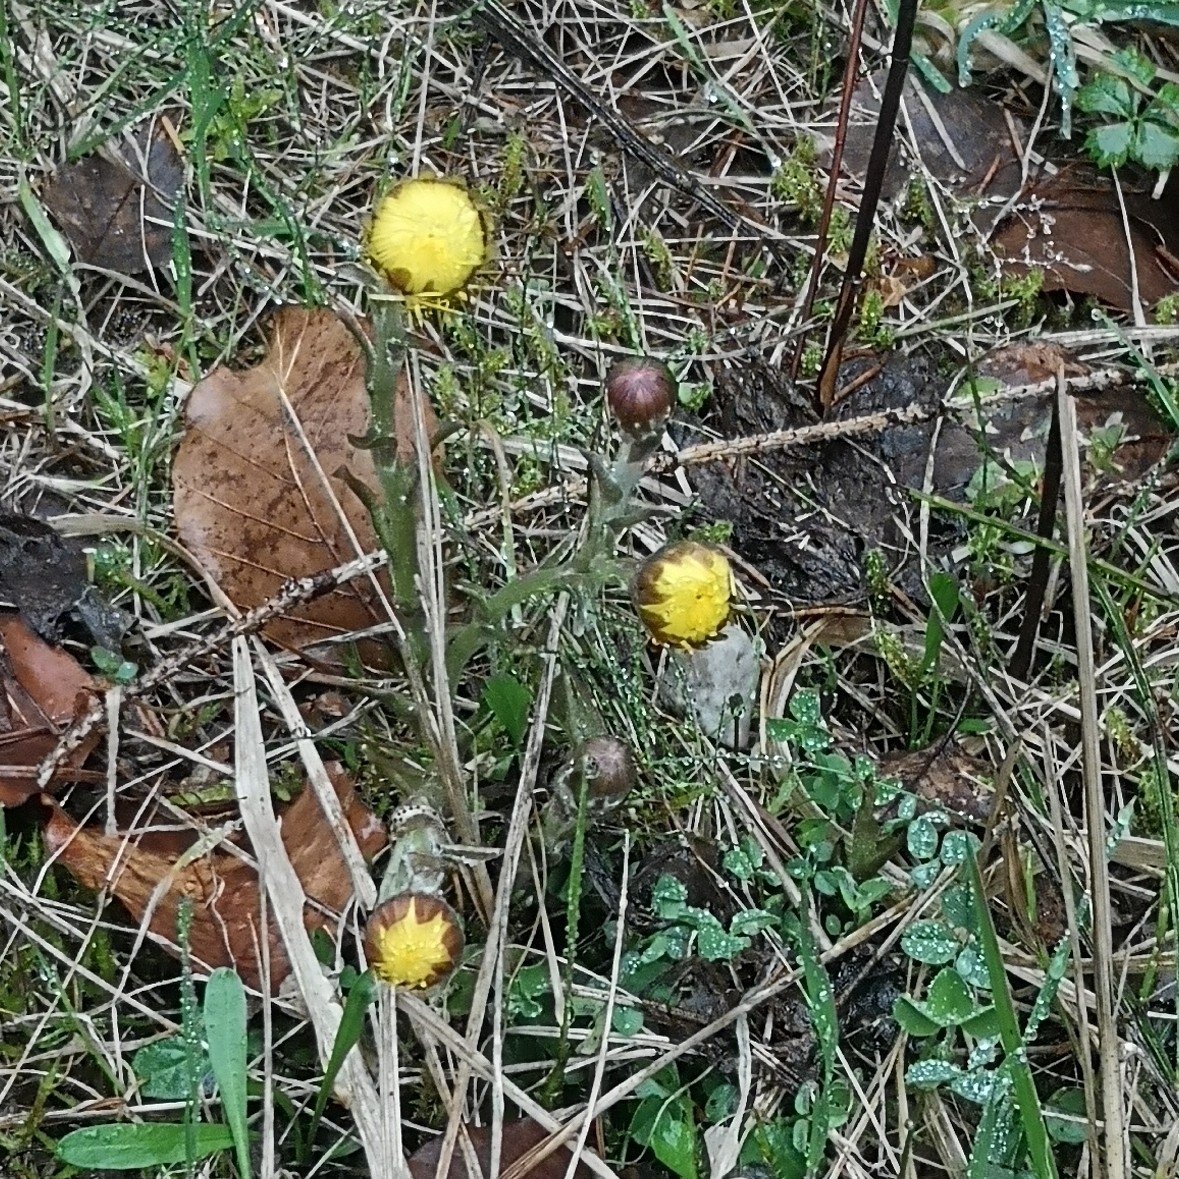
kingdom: Plantae
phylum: Tracheophyta
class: Magnoliopsida
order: Asterales
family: Asteraceae
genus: Tussilago
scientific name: Tussilago farfara
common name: Coltsfoot
